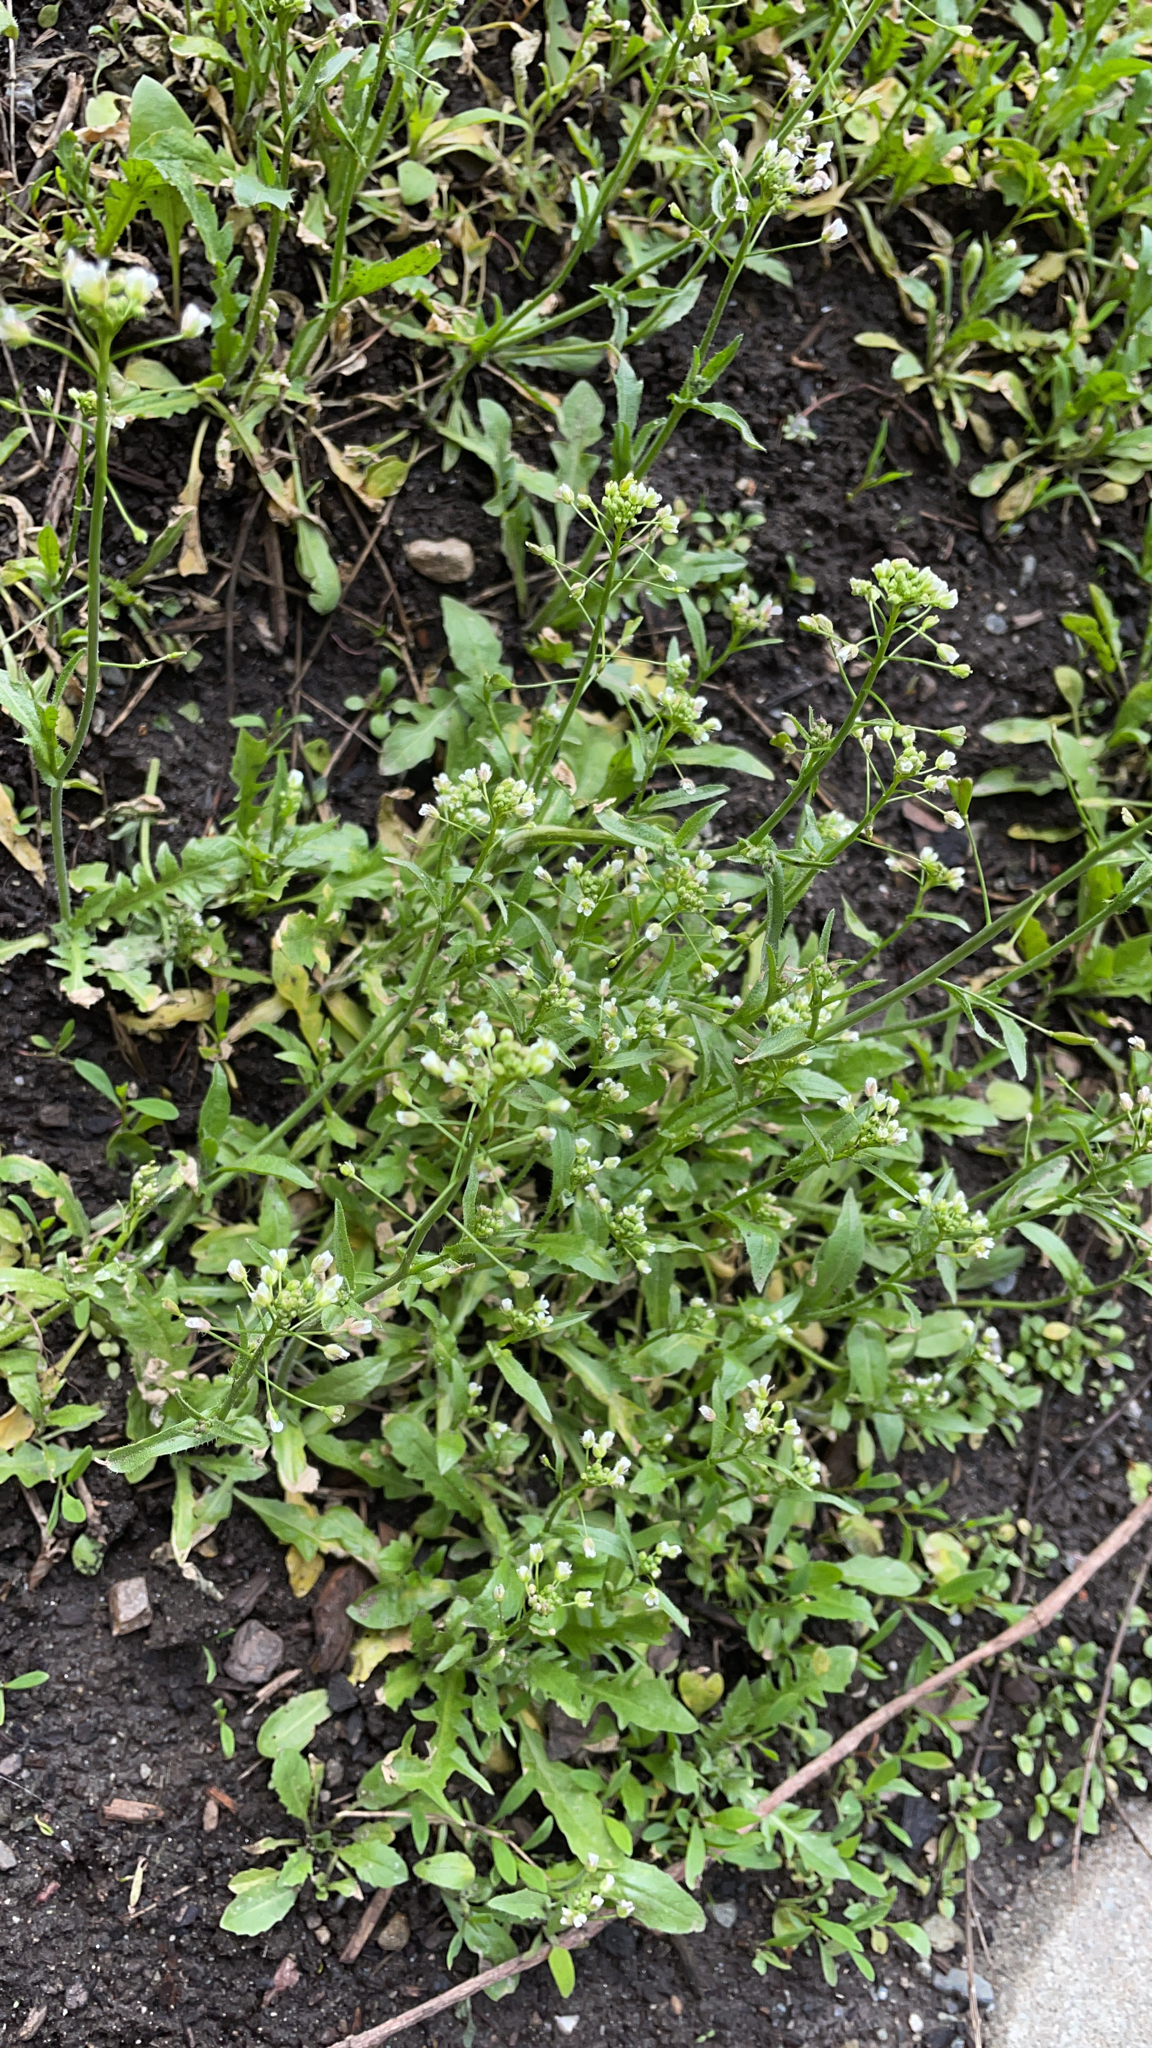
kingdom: Plantae
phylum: Tracheophyta
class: Magnoliopsida
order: Brassicales
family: Brassicaceae
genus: Capsella
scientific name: Capsella bursa-pastoris
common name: Shepherd's purse
